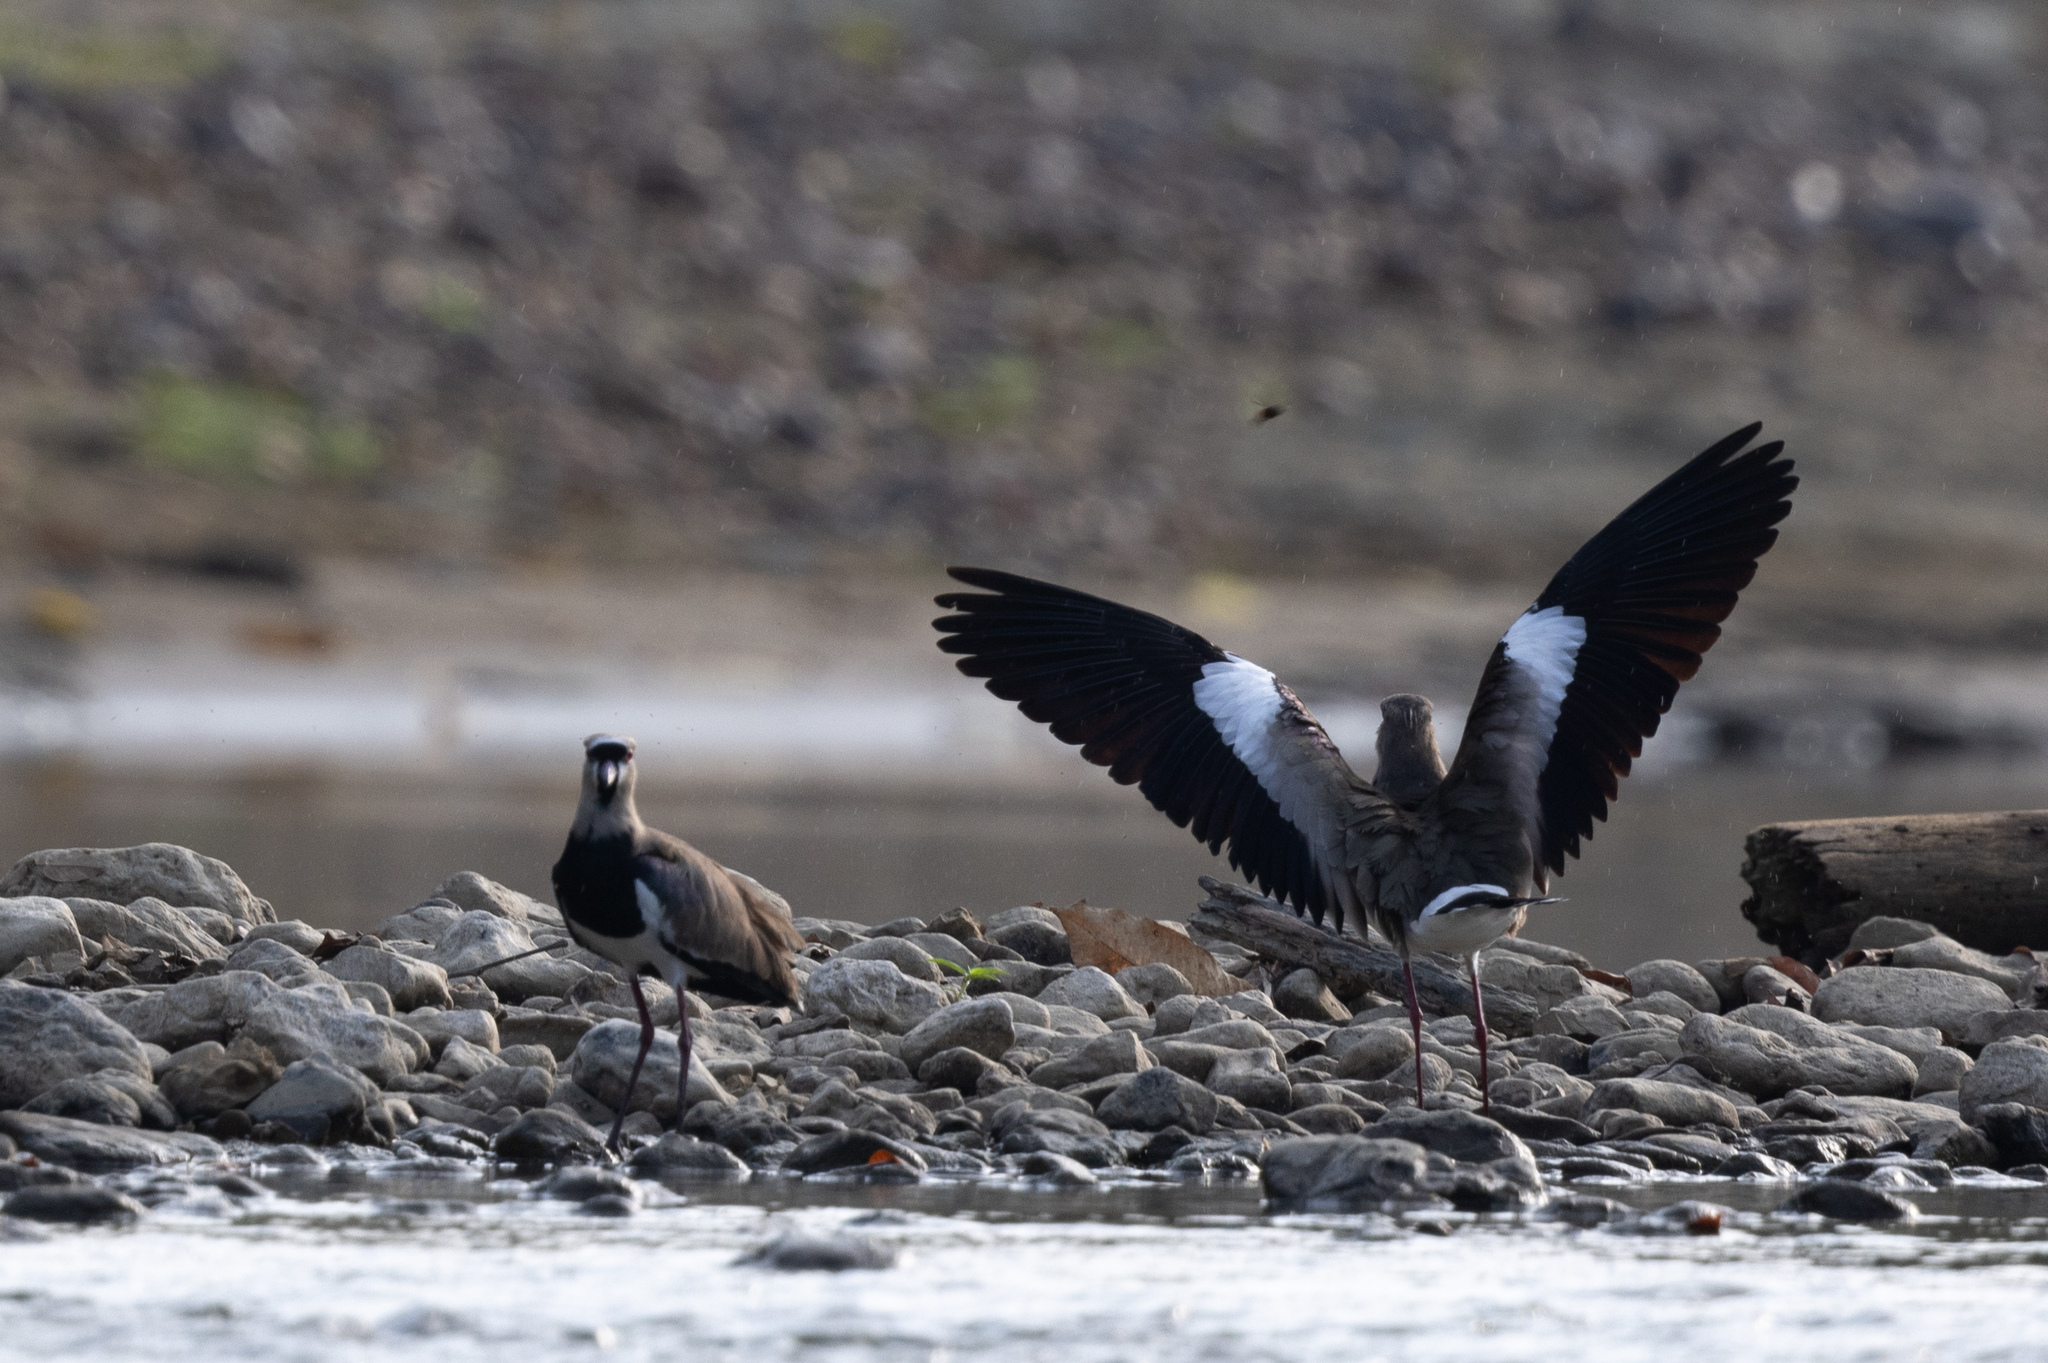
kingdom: Animalia
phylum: Chordata
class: Aves
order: Charadriiformes
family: Charadriidae
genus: Vanellus
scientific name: Vanellus chilensis
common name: Southern lapwing
